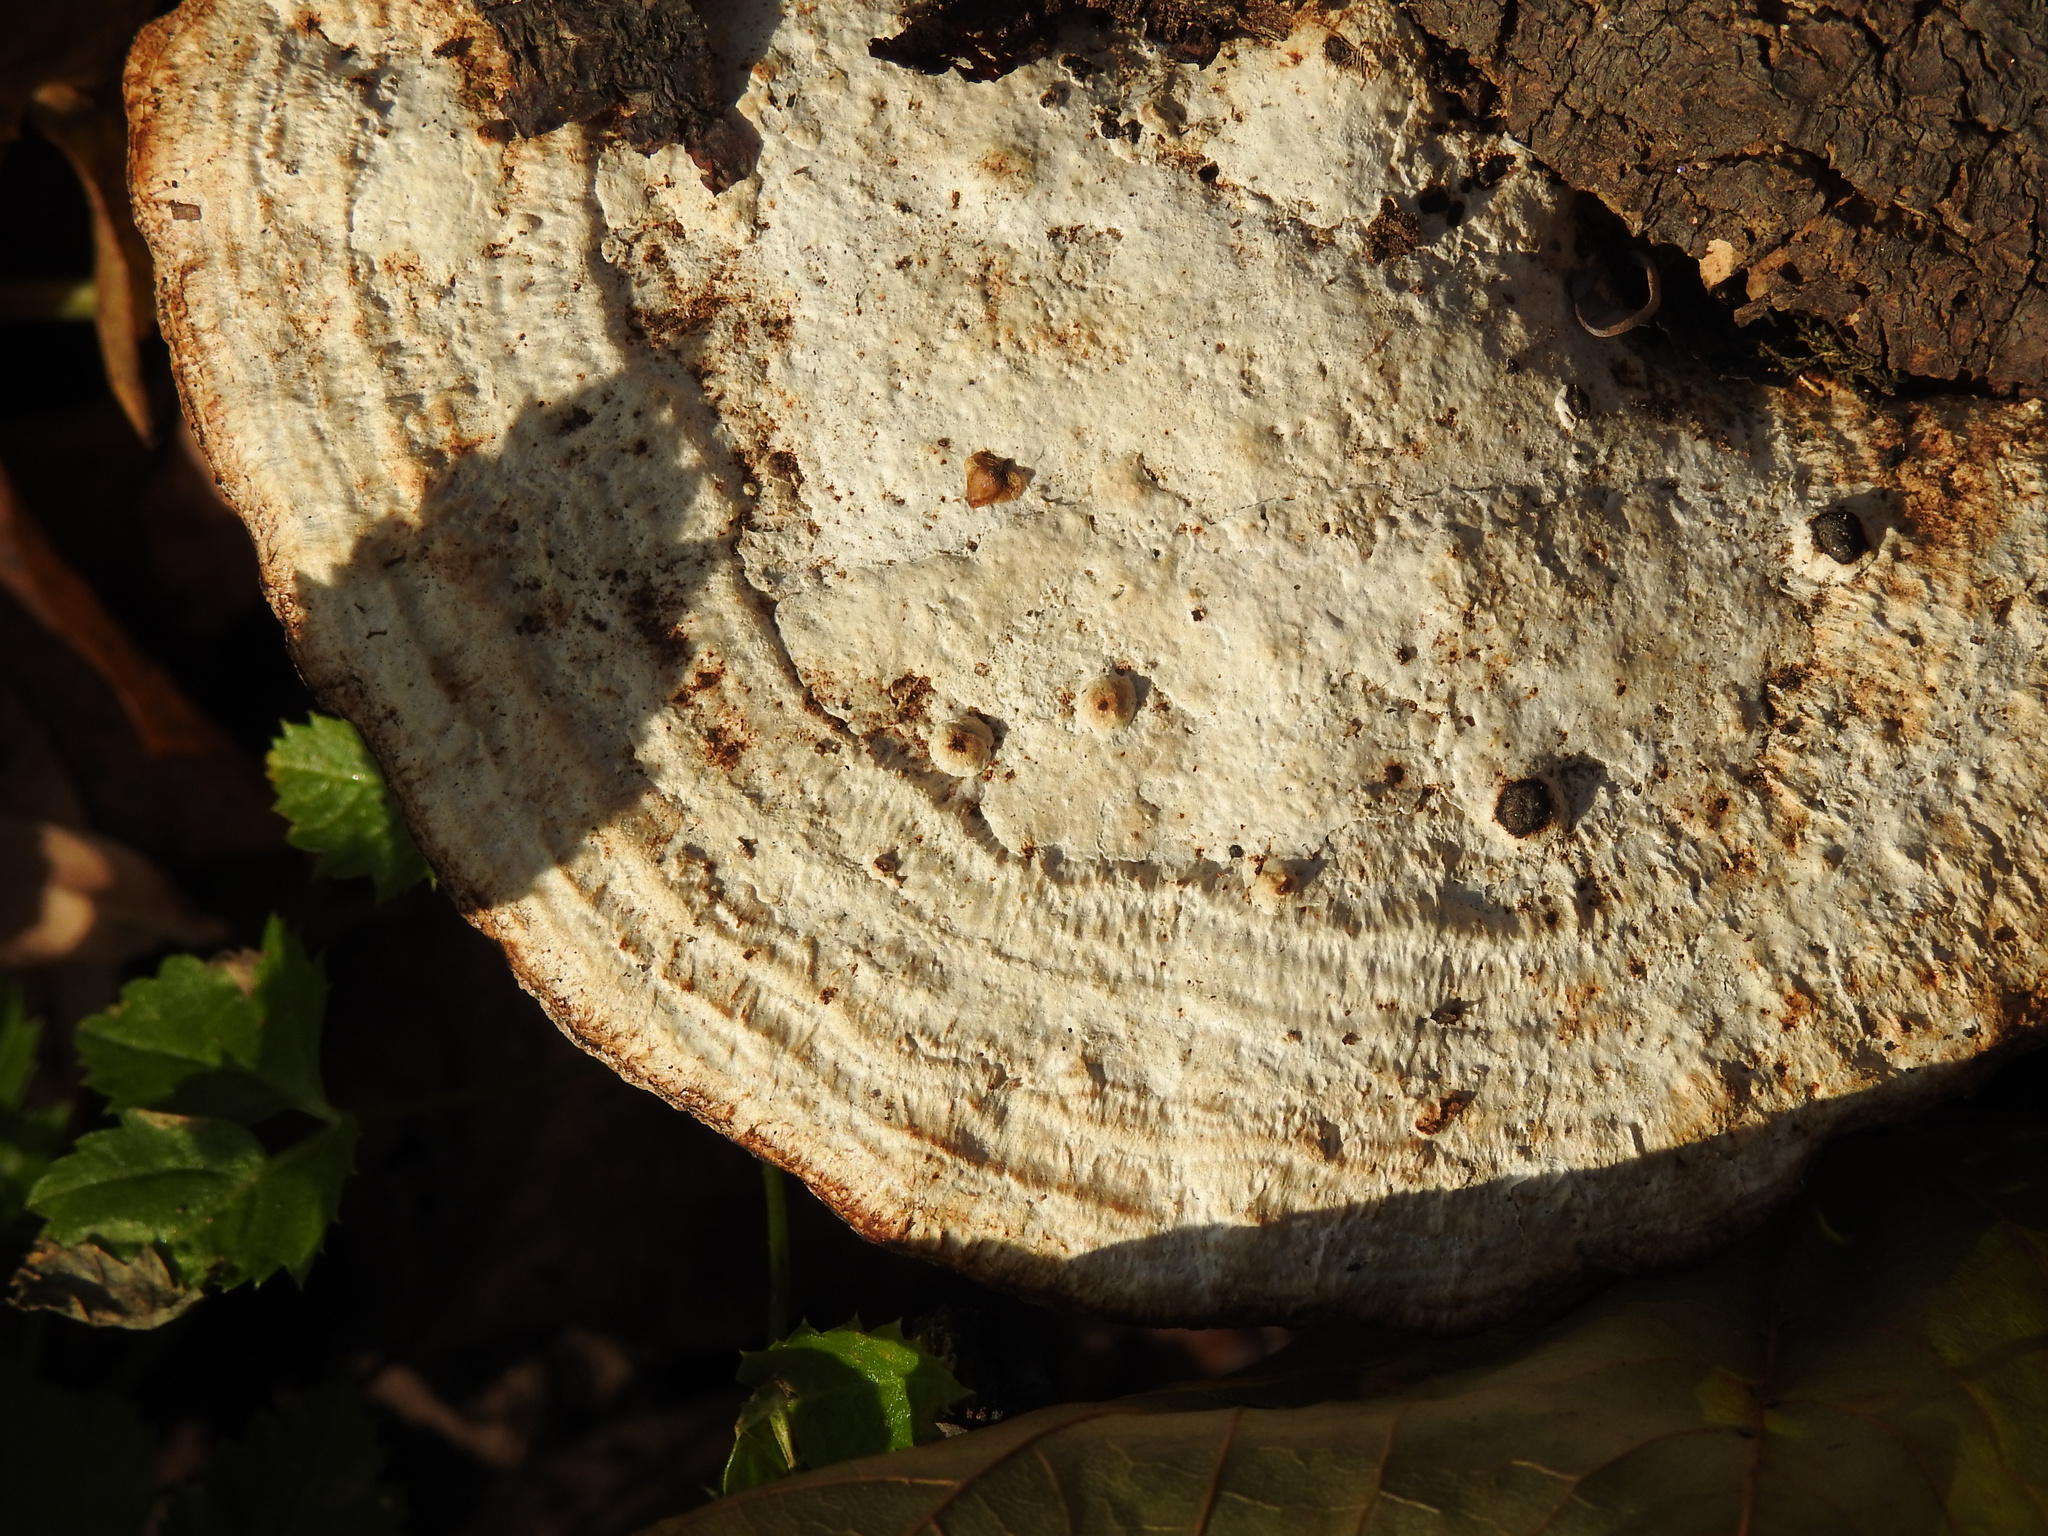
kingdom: Fungi
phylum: Basidiomycota
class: Agaricomycetes
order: Polyporales
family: Polyporaceae
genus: Daedaleopsis
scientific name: Daedaleopsis confragosa
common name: Blushing bracket
